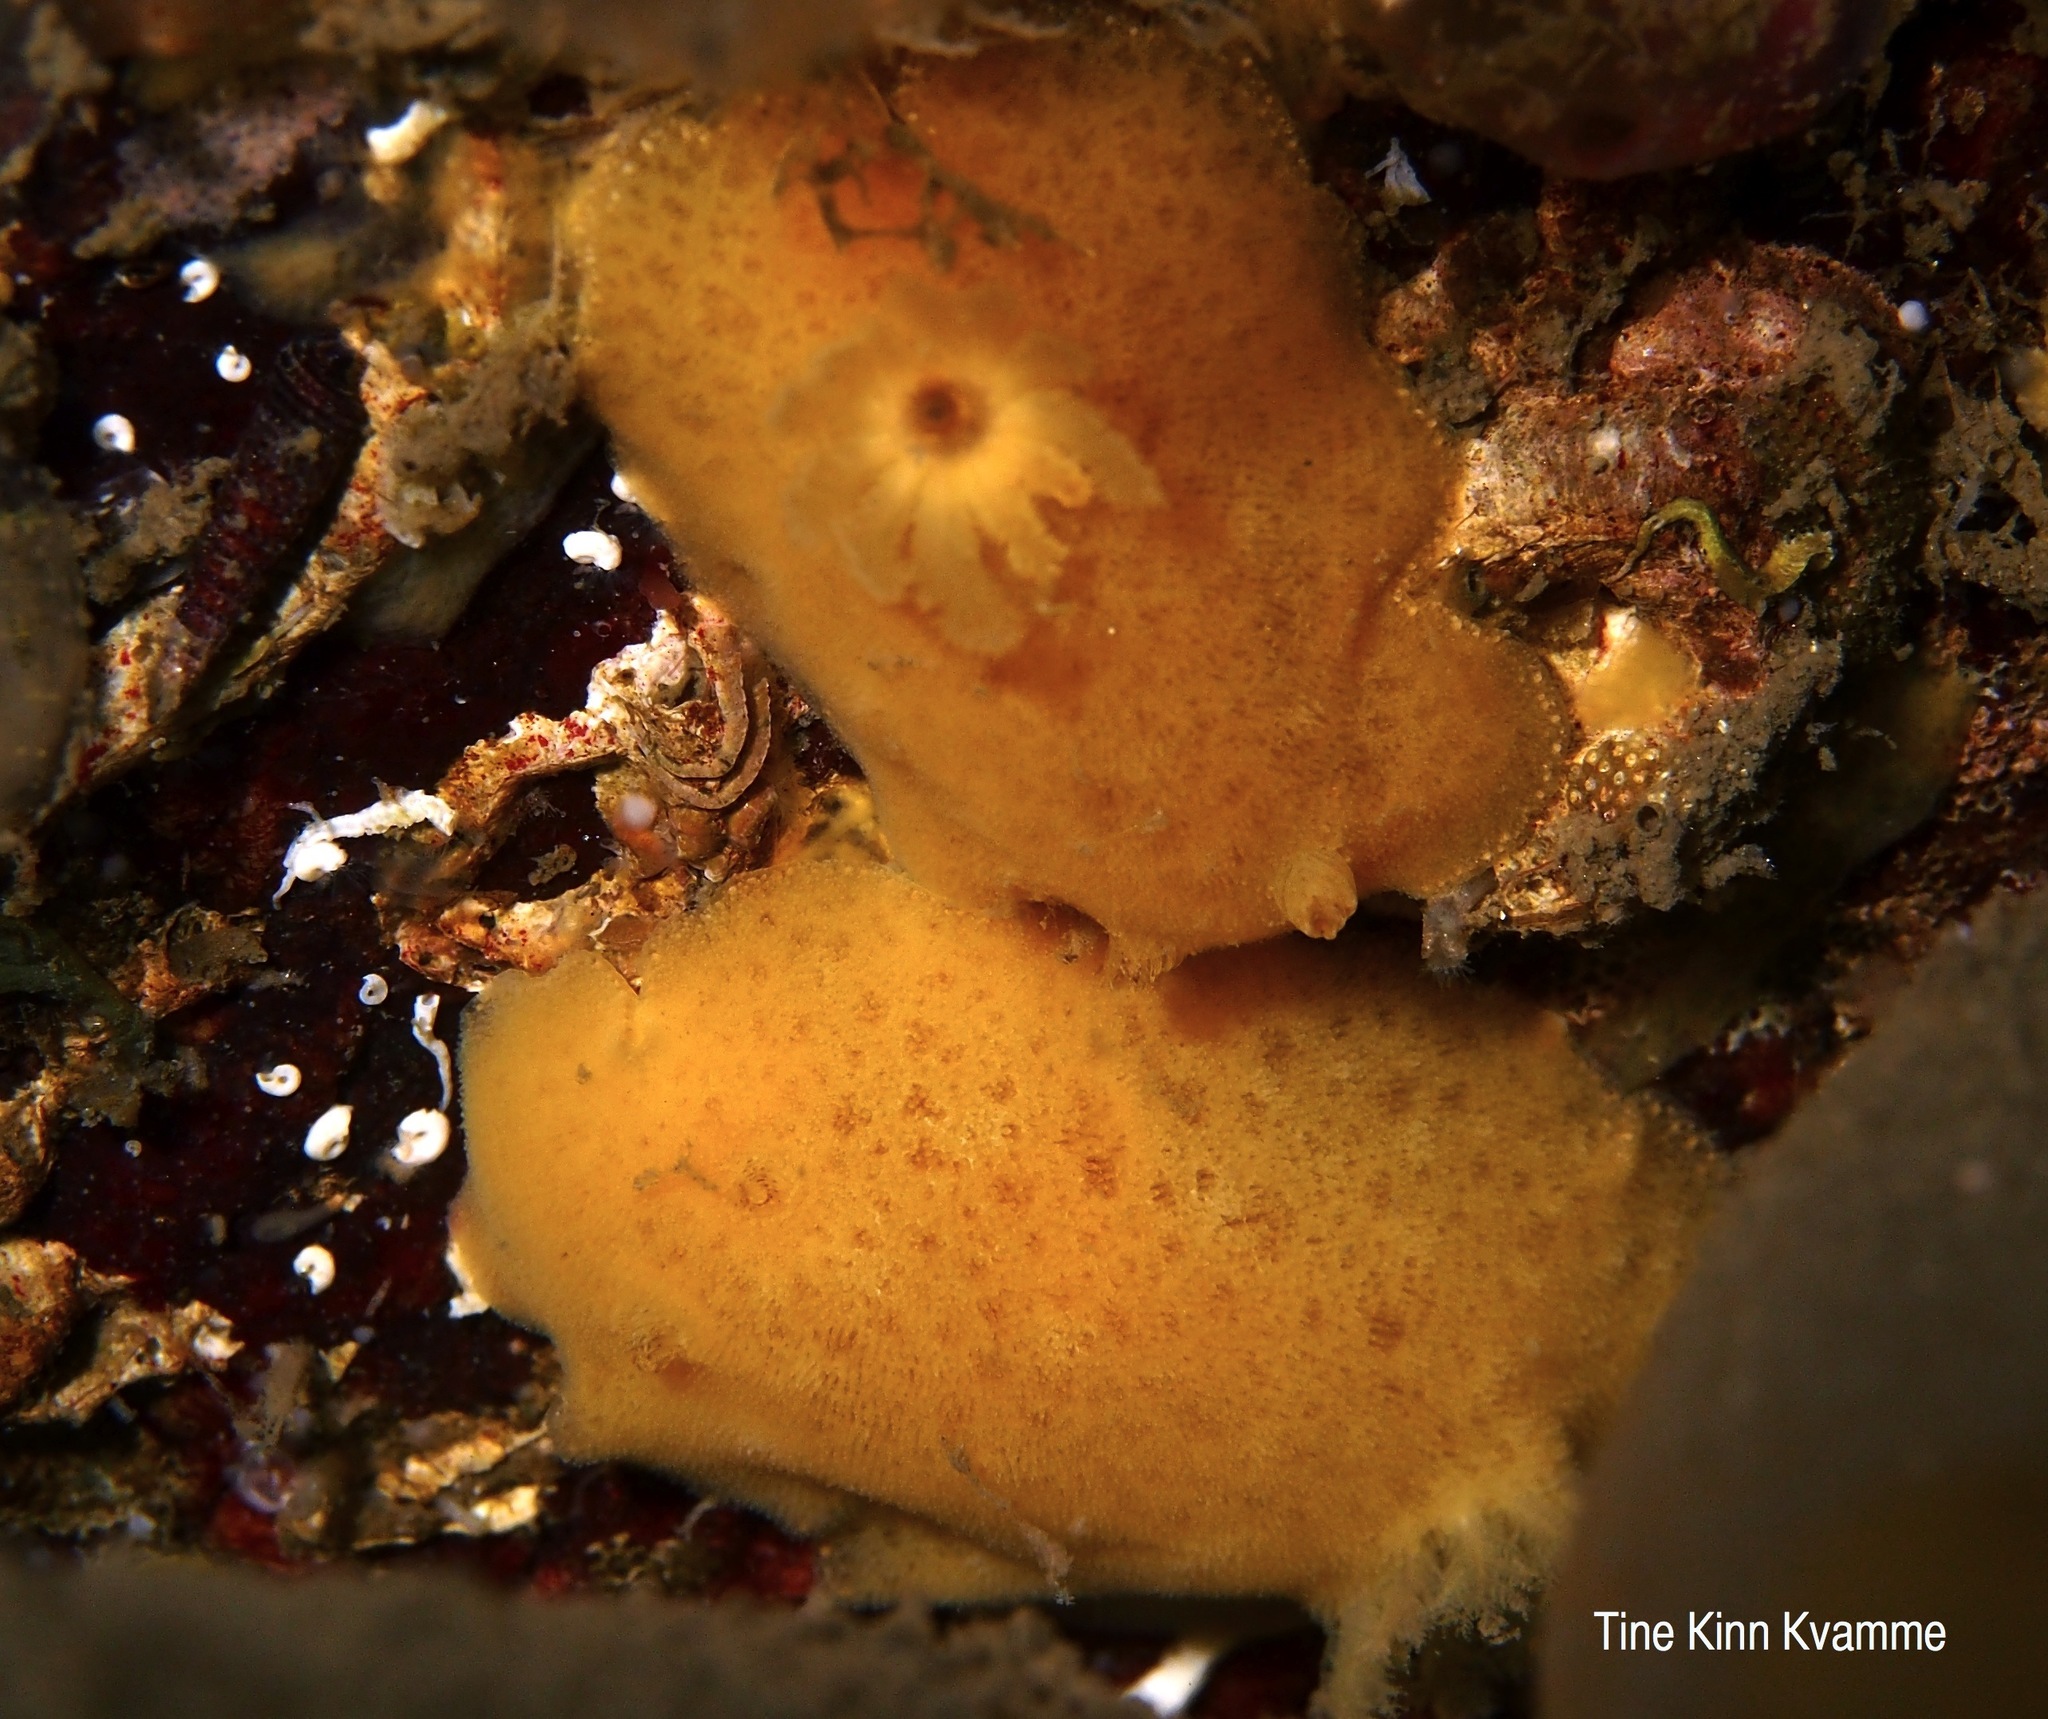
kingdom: Animalia
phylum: Mollusca
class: Gastropoda
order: Nudibranchia
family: Discodorididae
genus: Jorunna
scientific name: Jorunna tomentosa
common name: Grey sea slug
